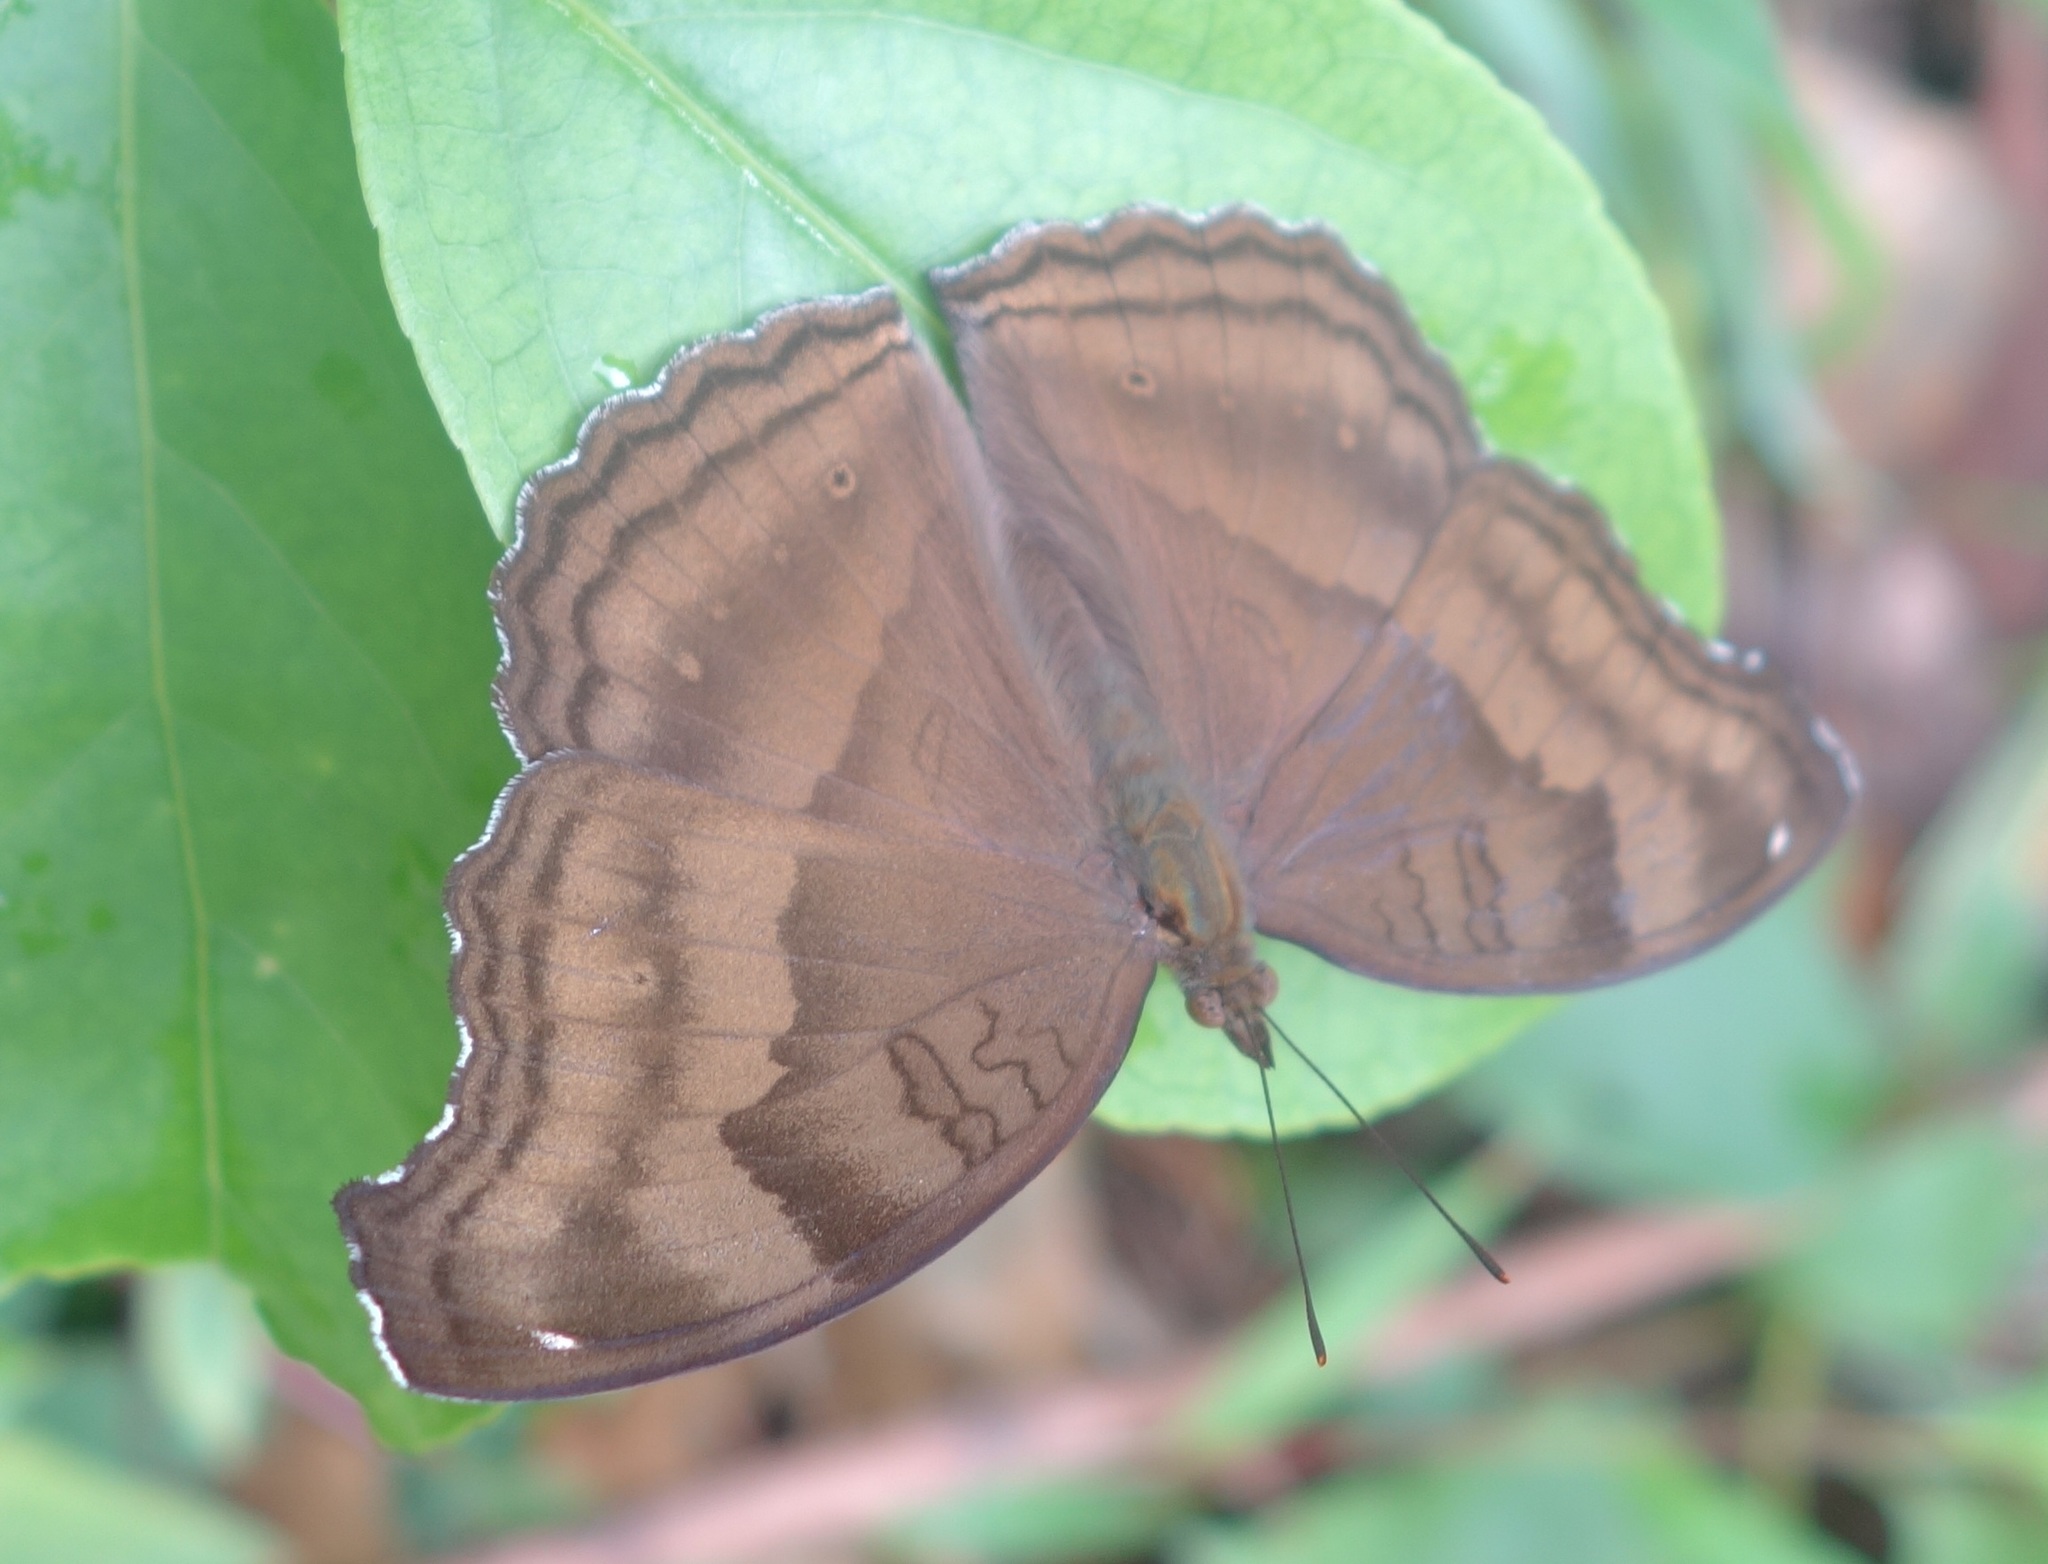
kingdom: Animalia
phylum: Arthropoda
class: Insecta
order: Lepidoptera
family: Nymphalidae
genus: Junonia
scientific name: Junonia iphita
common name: Chocolate pansy
